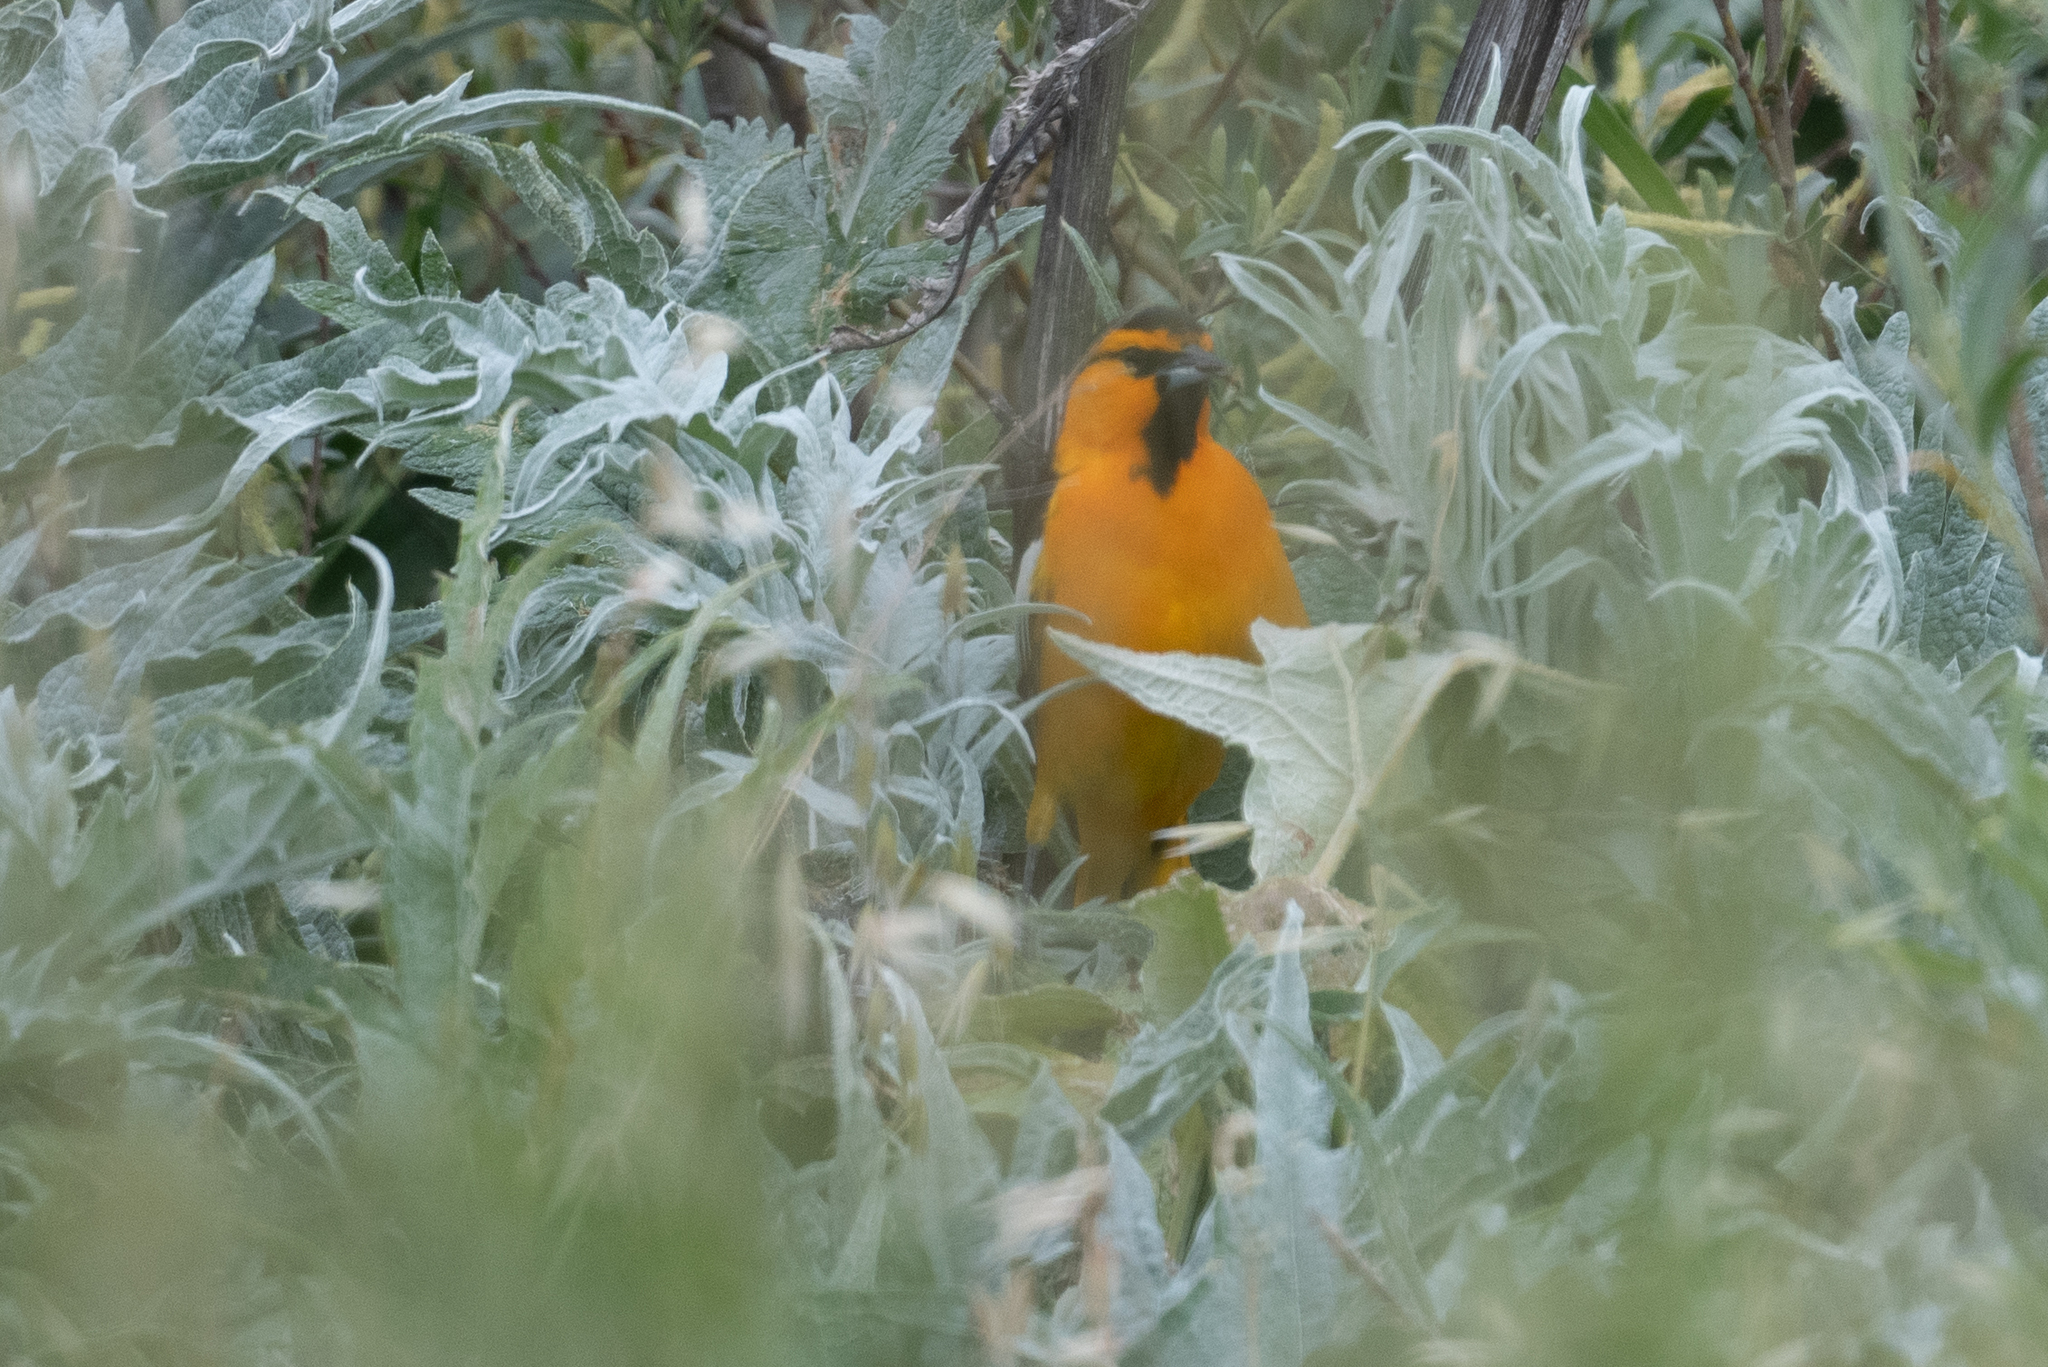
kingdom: Animalia
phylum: Chordata
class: Aves
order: Passeriformes
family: Icteridae
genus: Icterus
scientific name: Icterus bullockii
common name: Bullock's oriole
